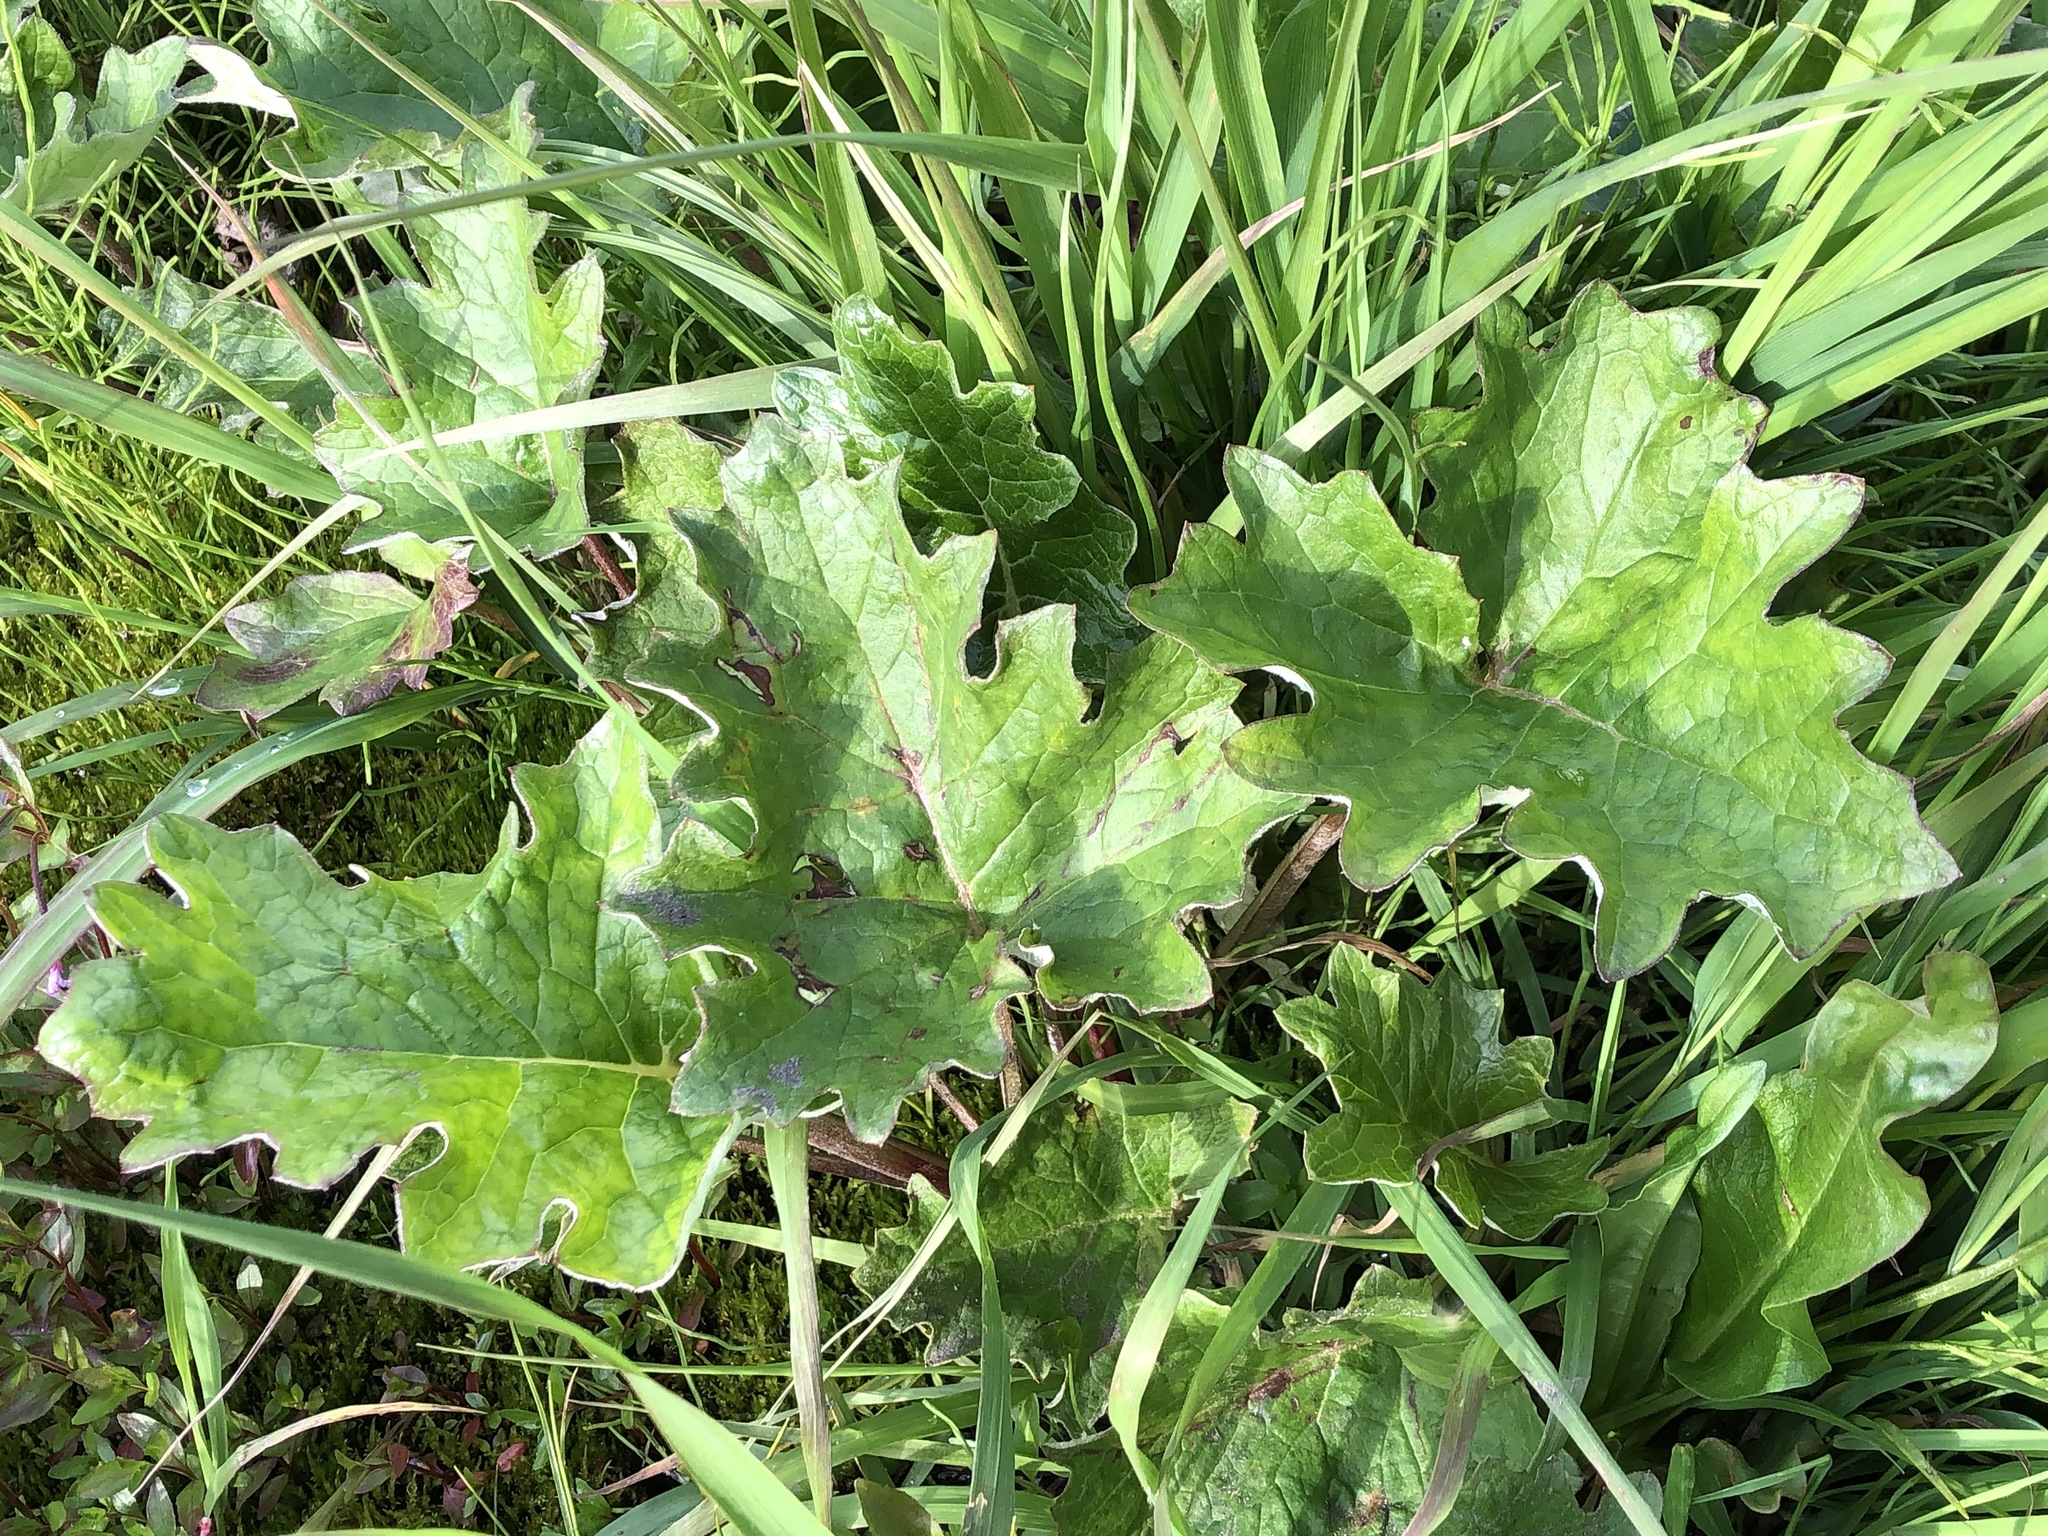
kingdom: Plantae
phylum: Tracheophyta
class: Magnoliopsida
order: Asterales
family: Asteraceae
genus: Petasites
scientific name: Petasites frigidus
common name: Arctic butterbur
